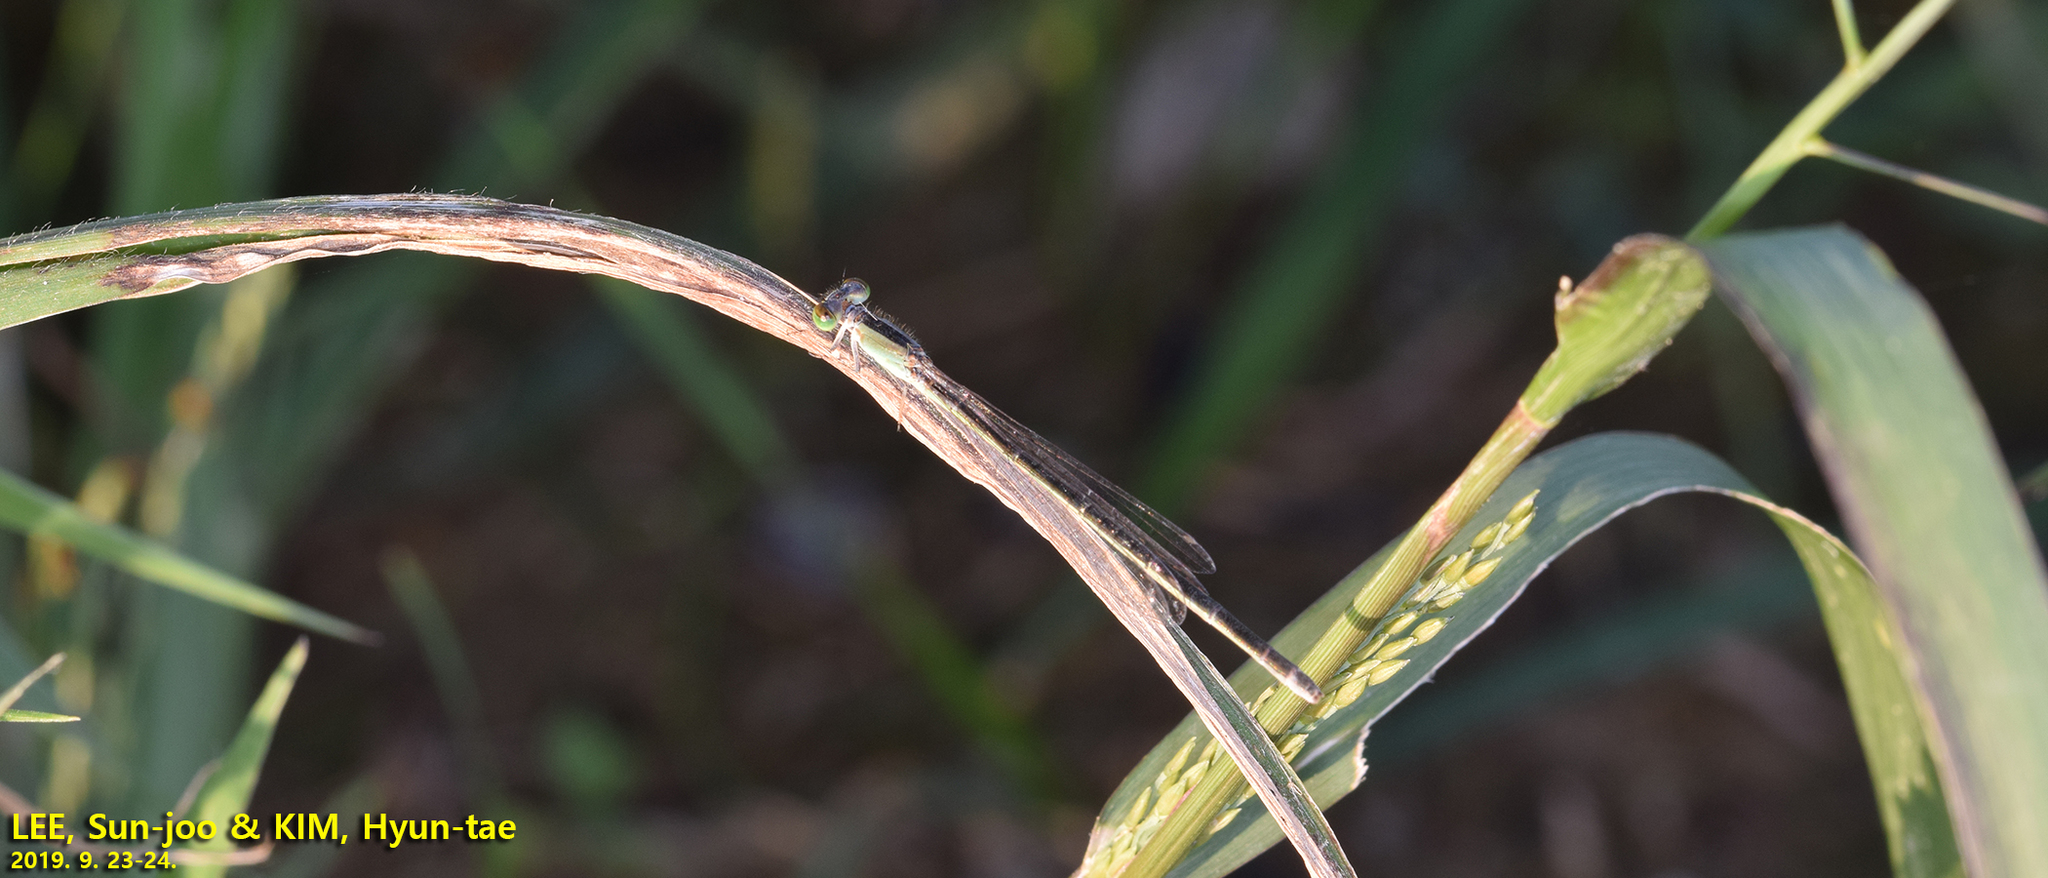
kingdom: Animalia
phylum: Arthropoda
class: Insecta
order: Odonata
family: Coenagrionidae
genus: Ischnura
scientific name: Ischnura asiatica
